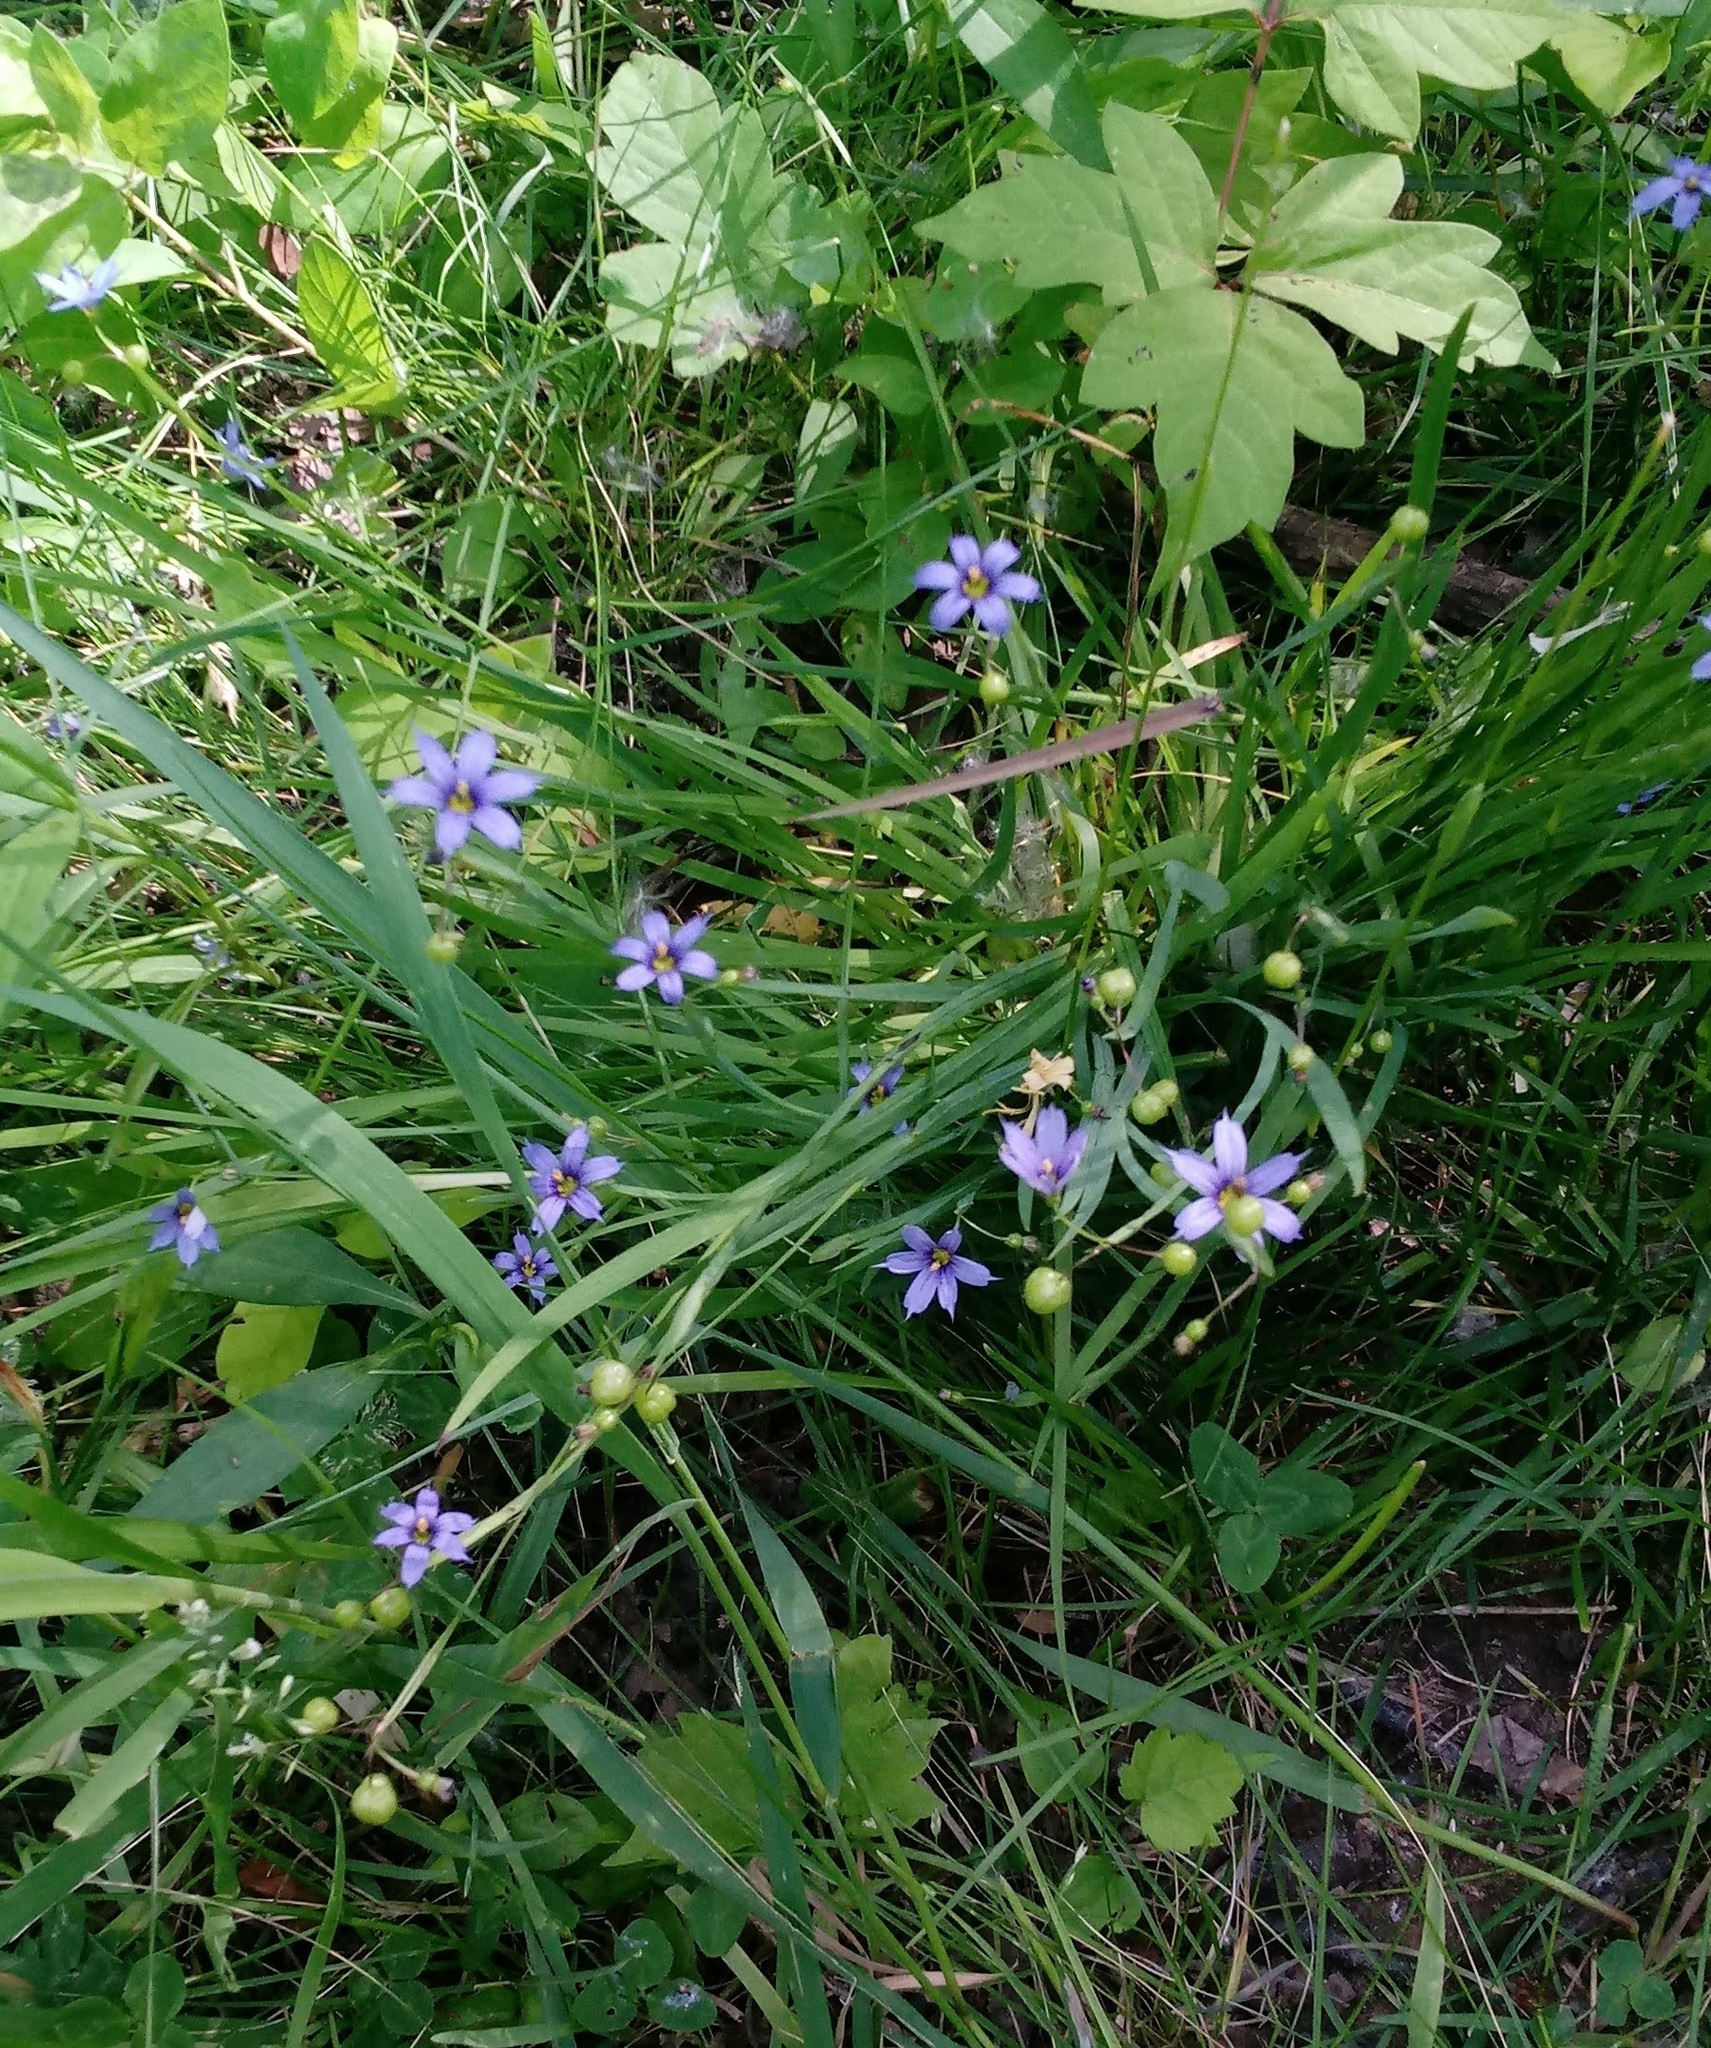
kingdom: Plantae
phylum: Tracheophyta
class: Liliopsida
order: Asparagales
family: Iridaceae
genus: Sisyrinchium
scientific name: Sisyrinchium angustifolium
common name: Narrow-leaf blue-eyed-grass
